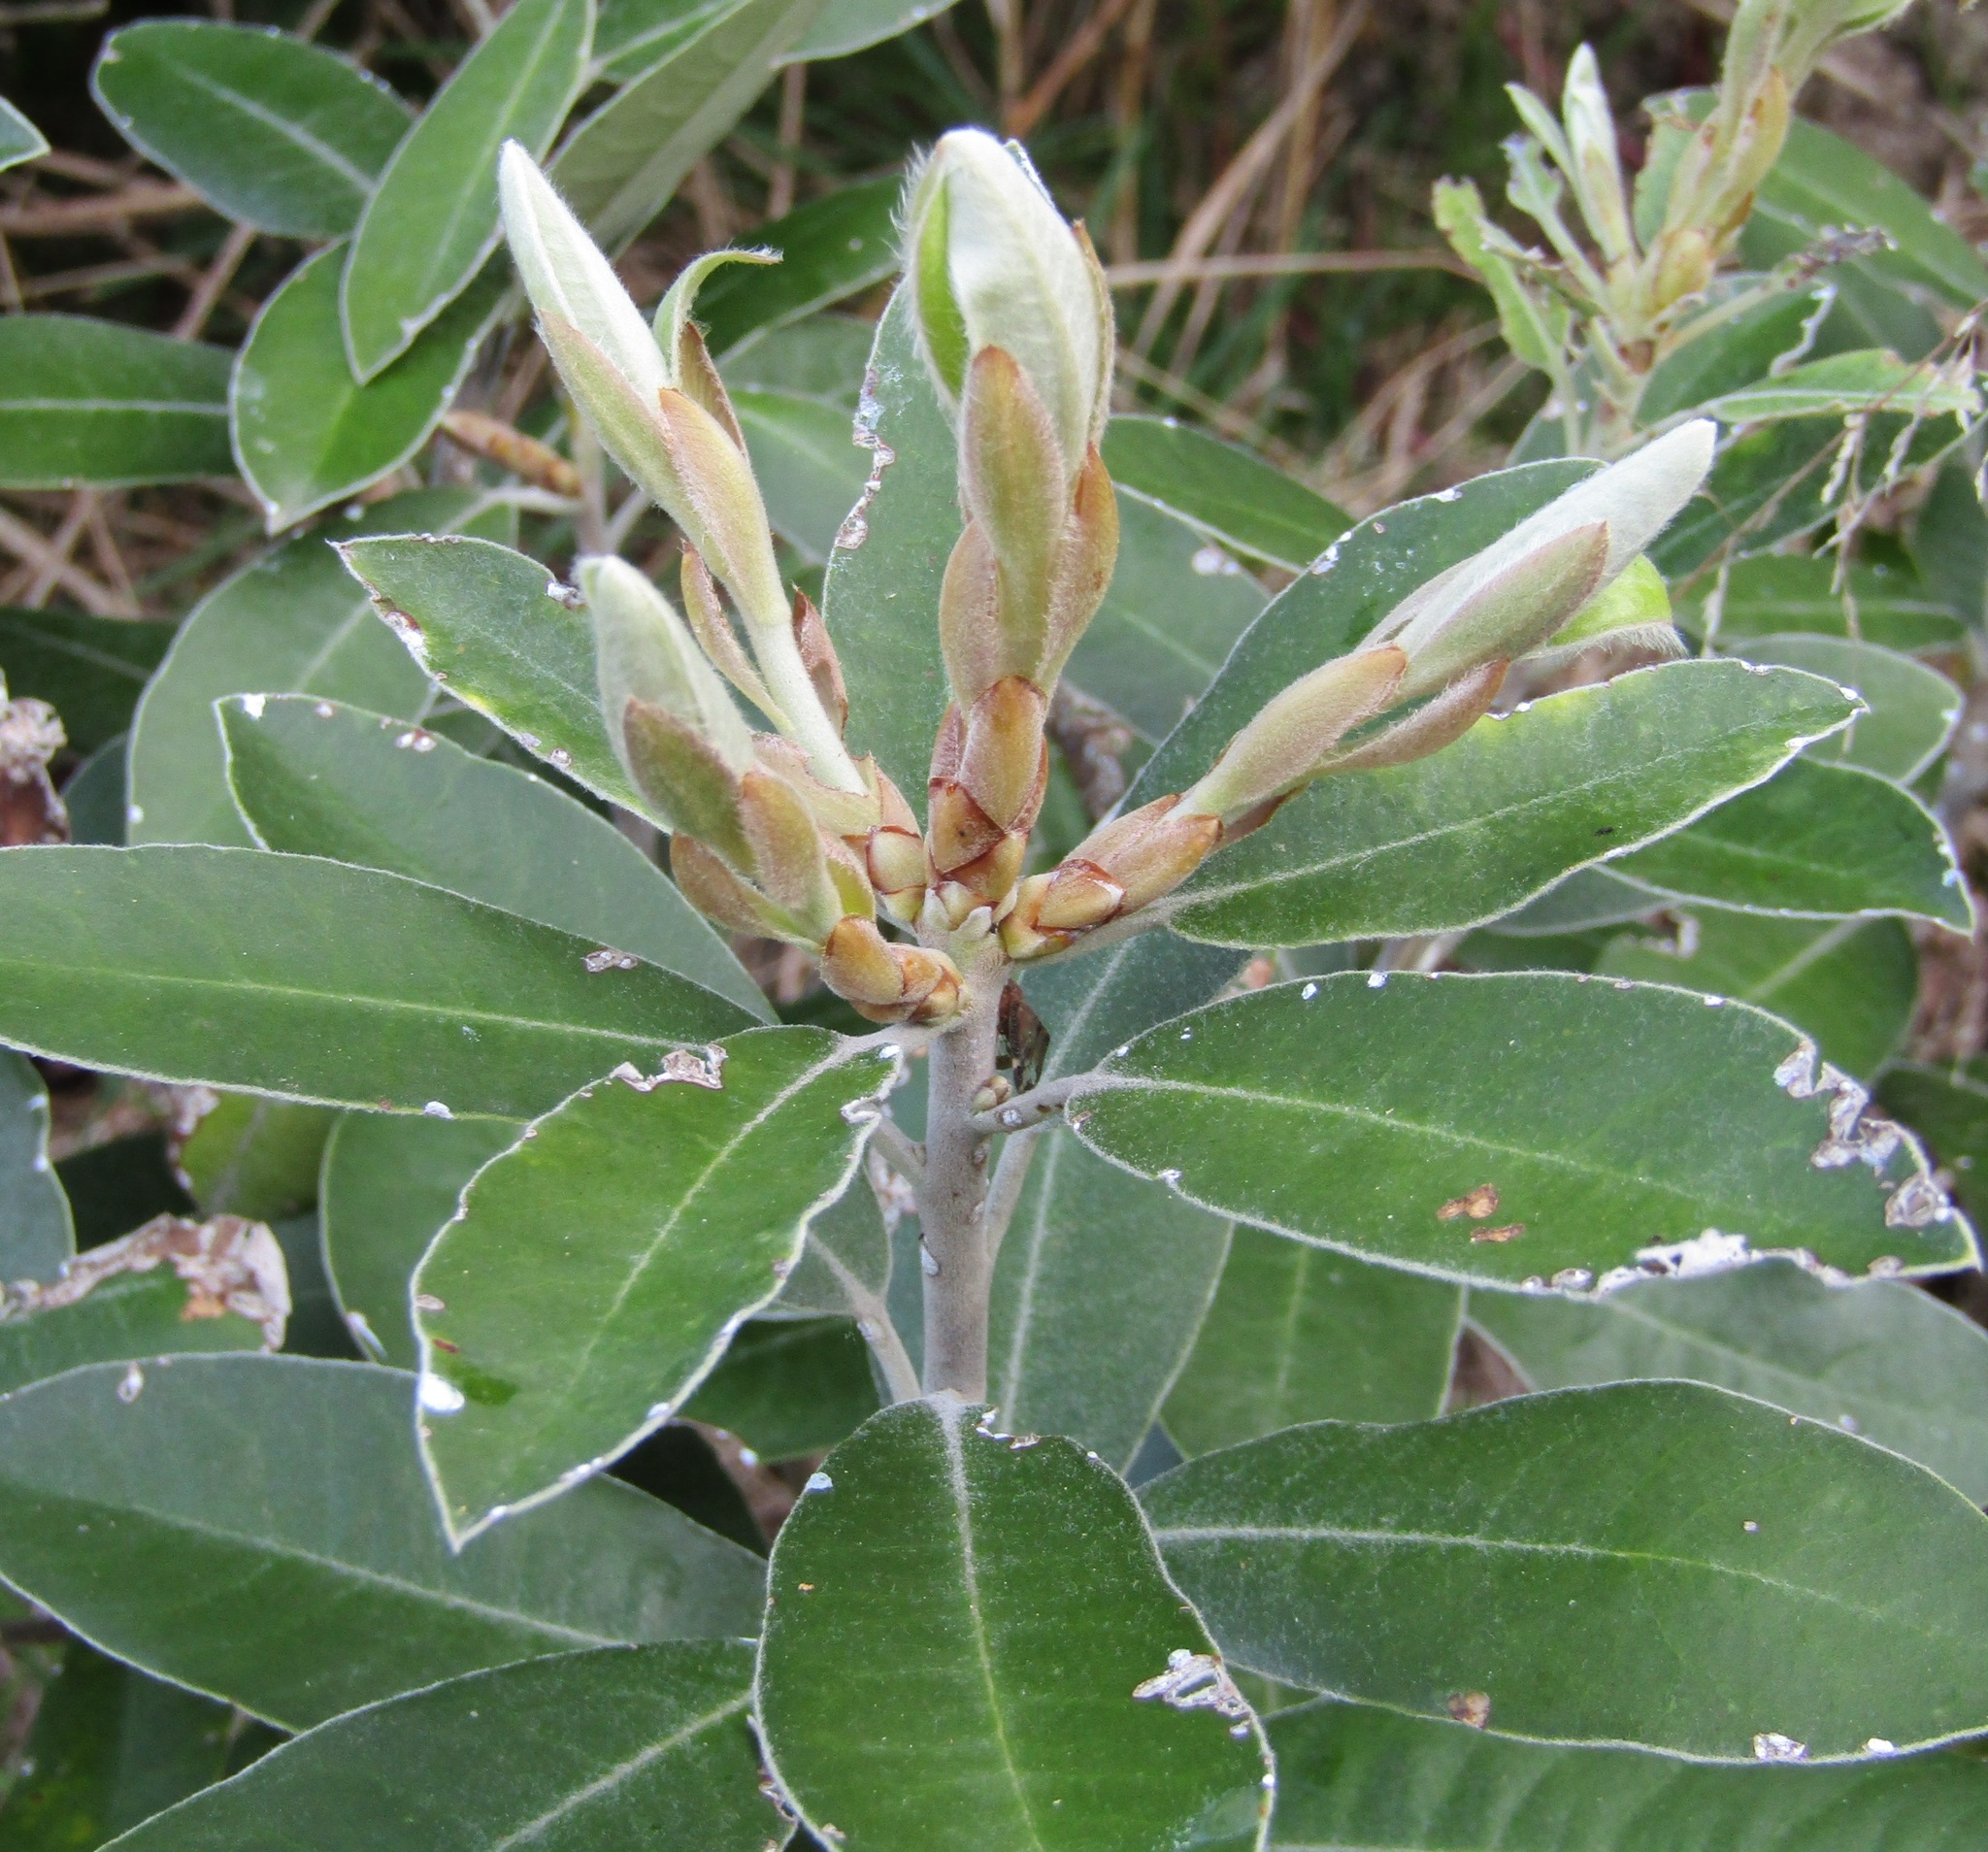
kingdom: Plantae
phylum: Tracheophyta
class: Magnoliopsida
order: Apiales
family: Pittosporaceae
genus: Pittosporum
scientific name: Pittosporum ralphii
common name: Ralph's desertwillow
